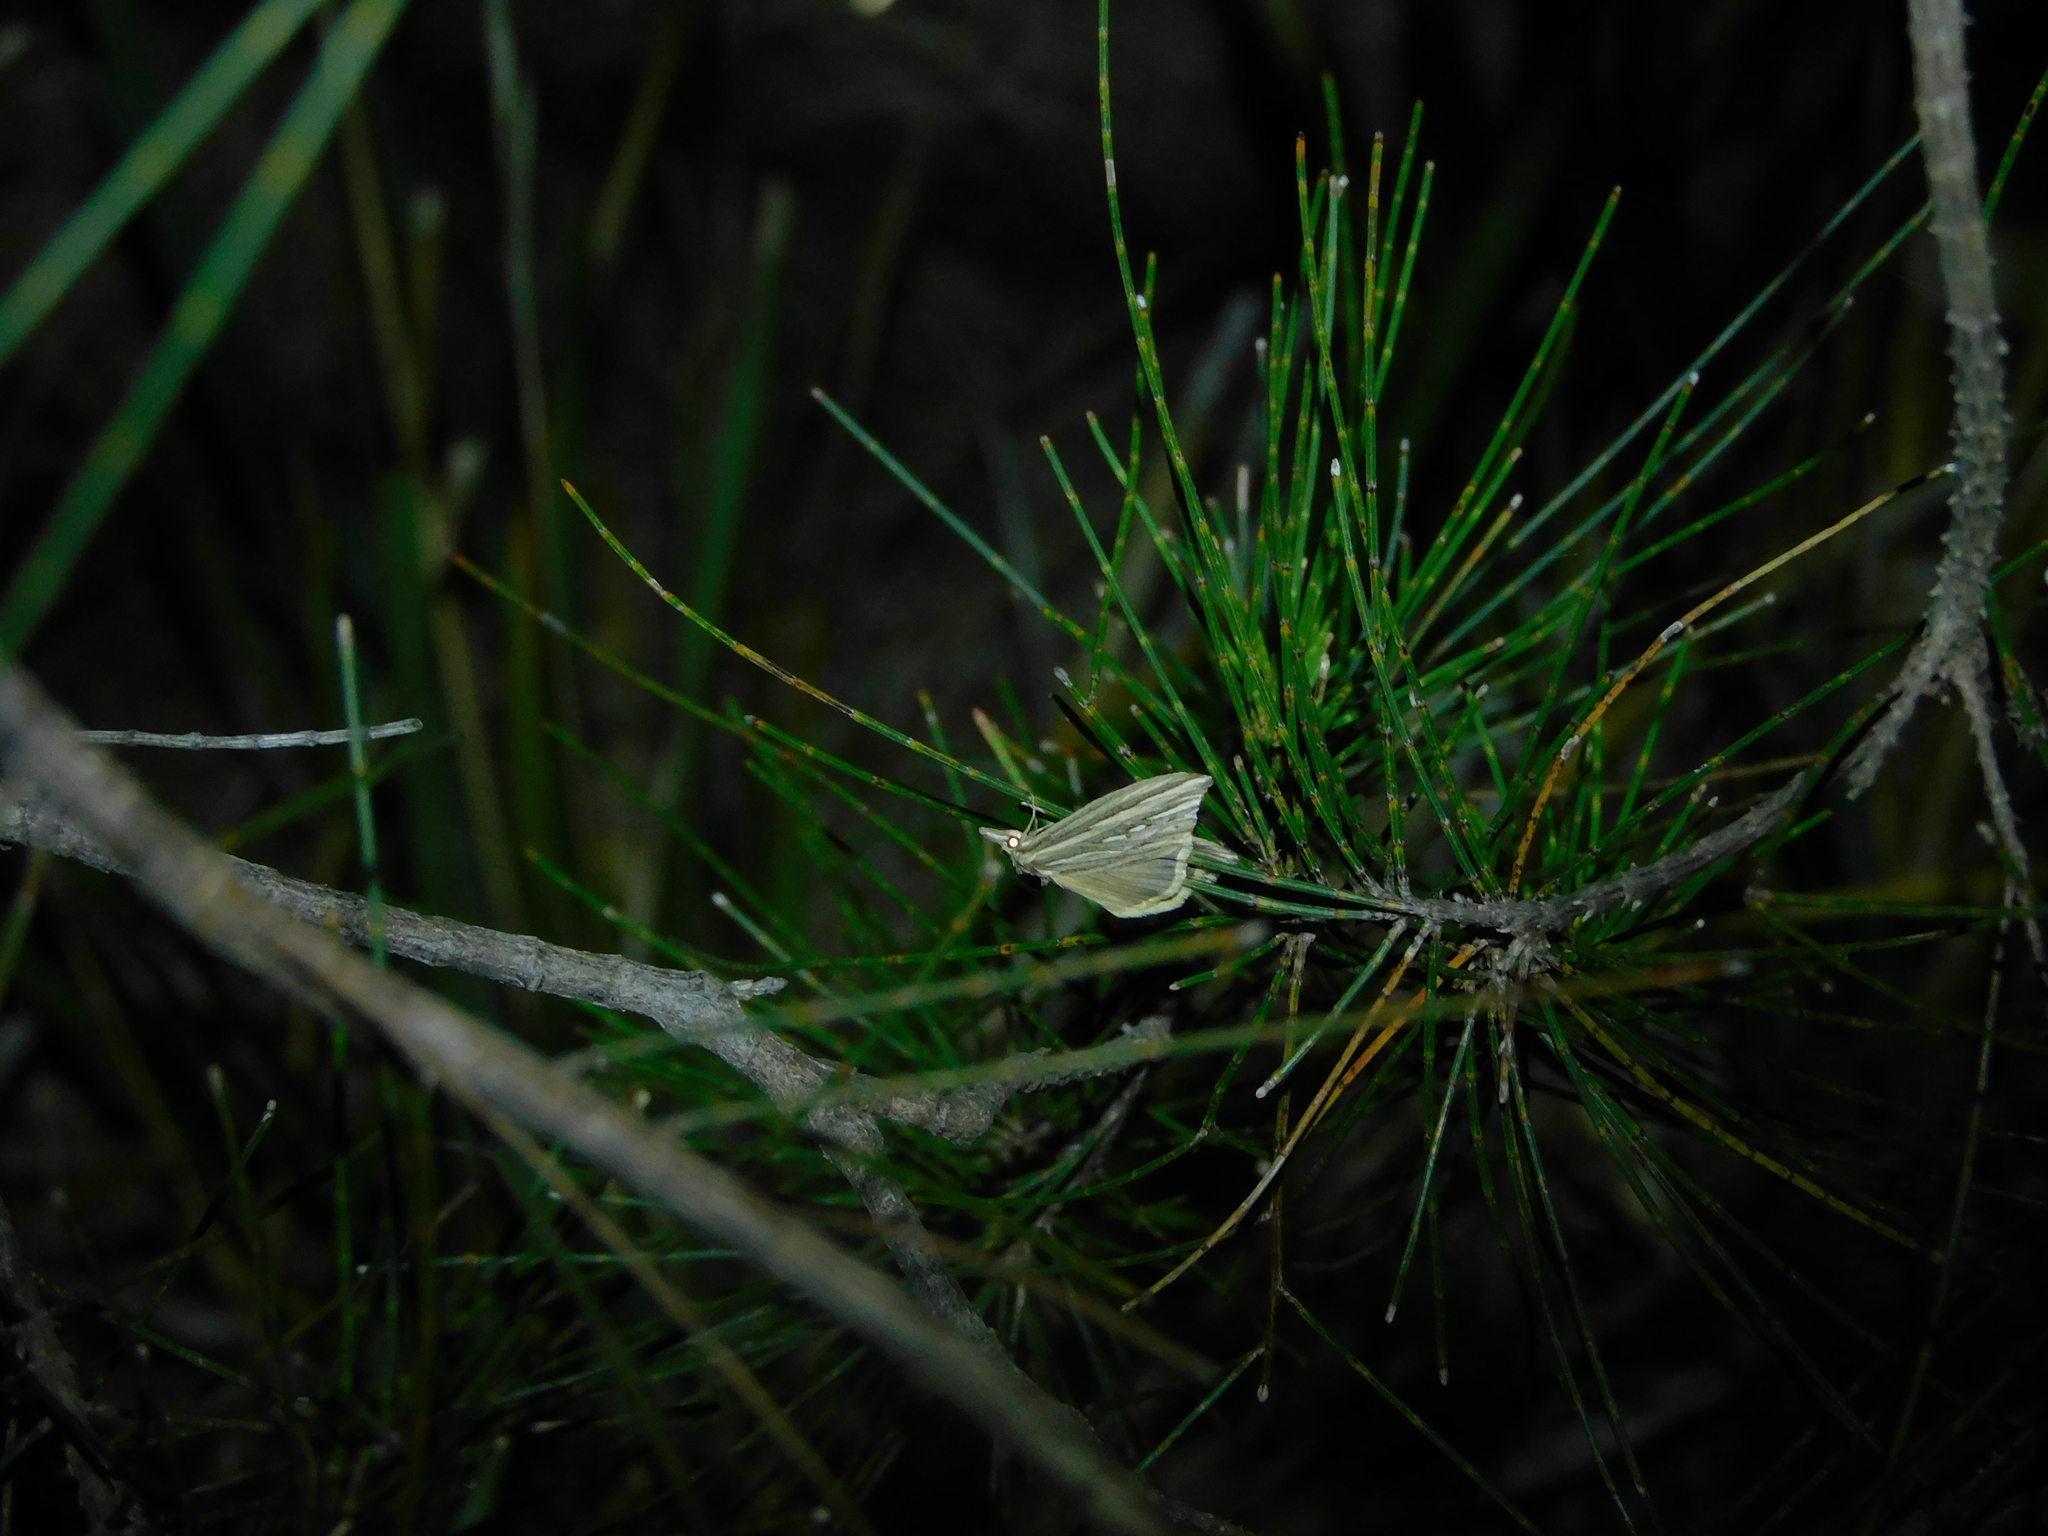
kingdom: Animalia
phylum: Arthropoda
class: Insecta
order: Lepidoptera
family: Erebidae
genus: Meyrickella
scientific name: Meyrickella ruptellus
